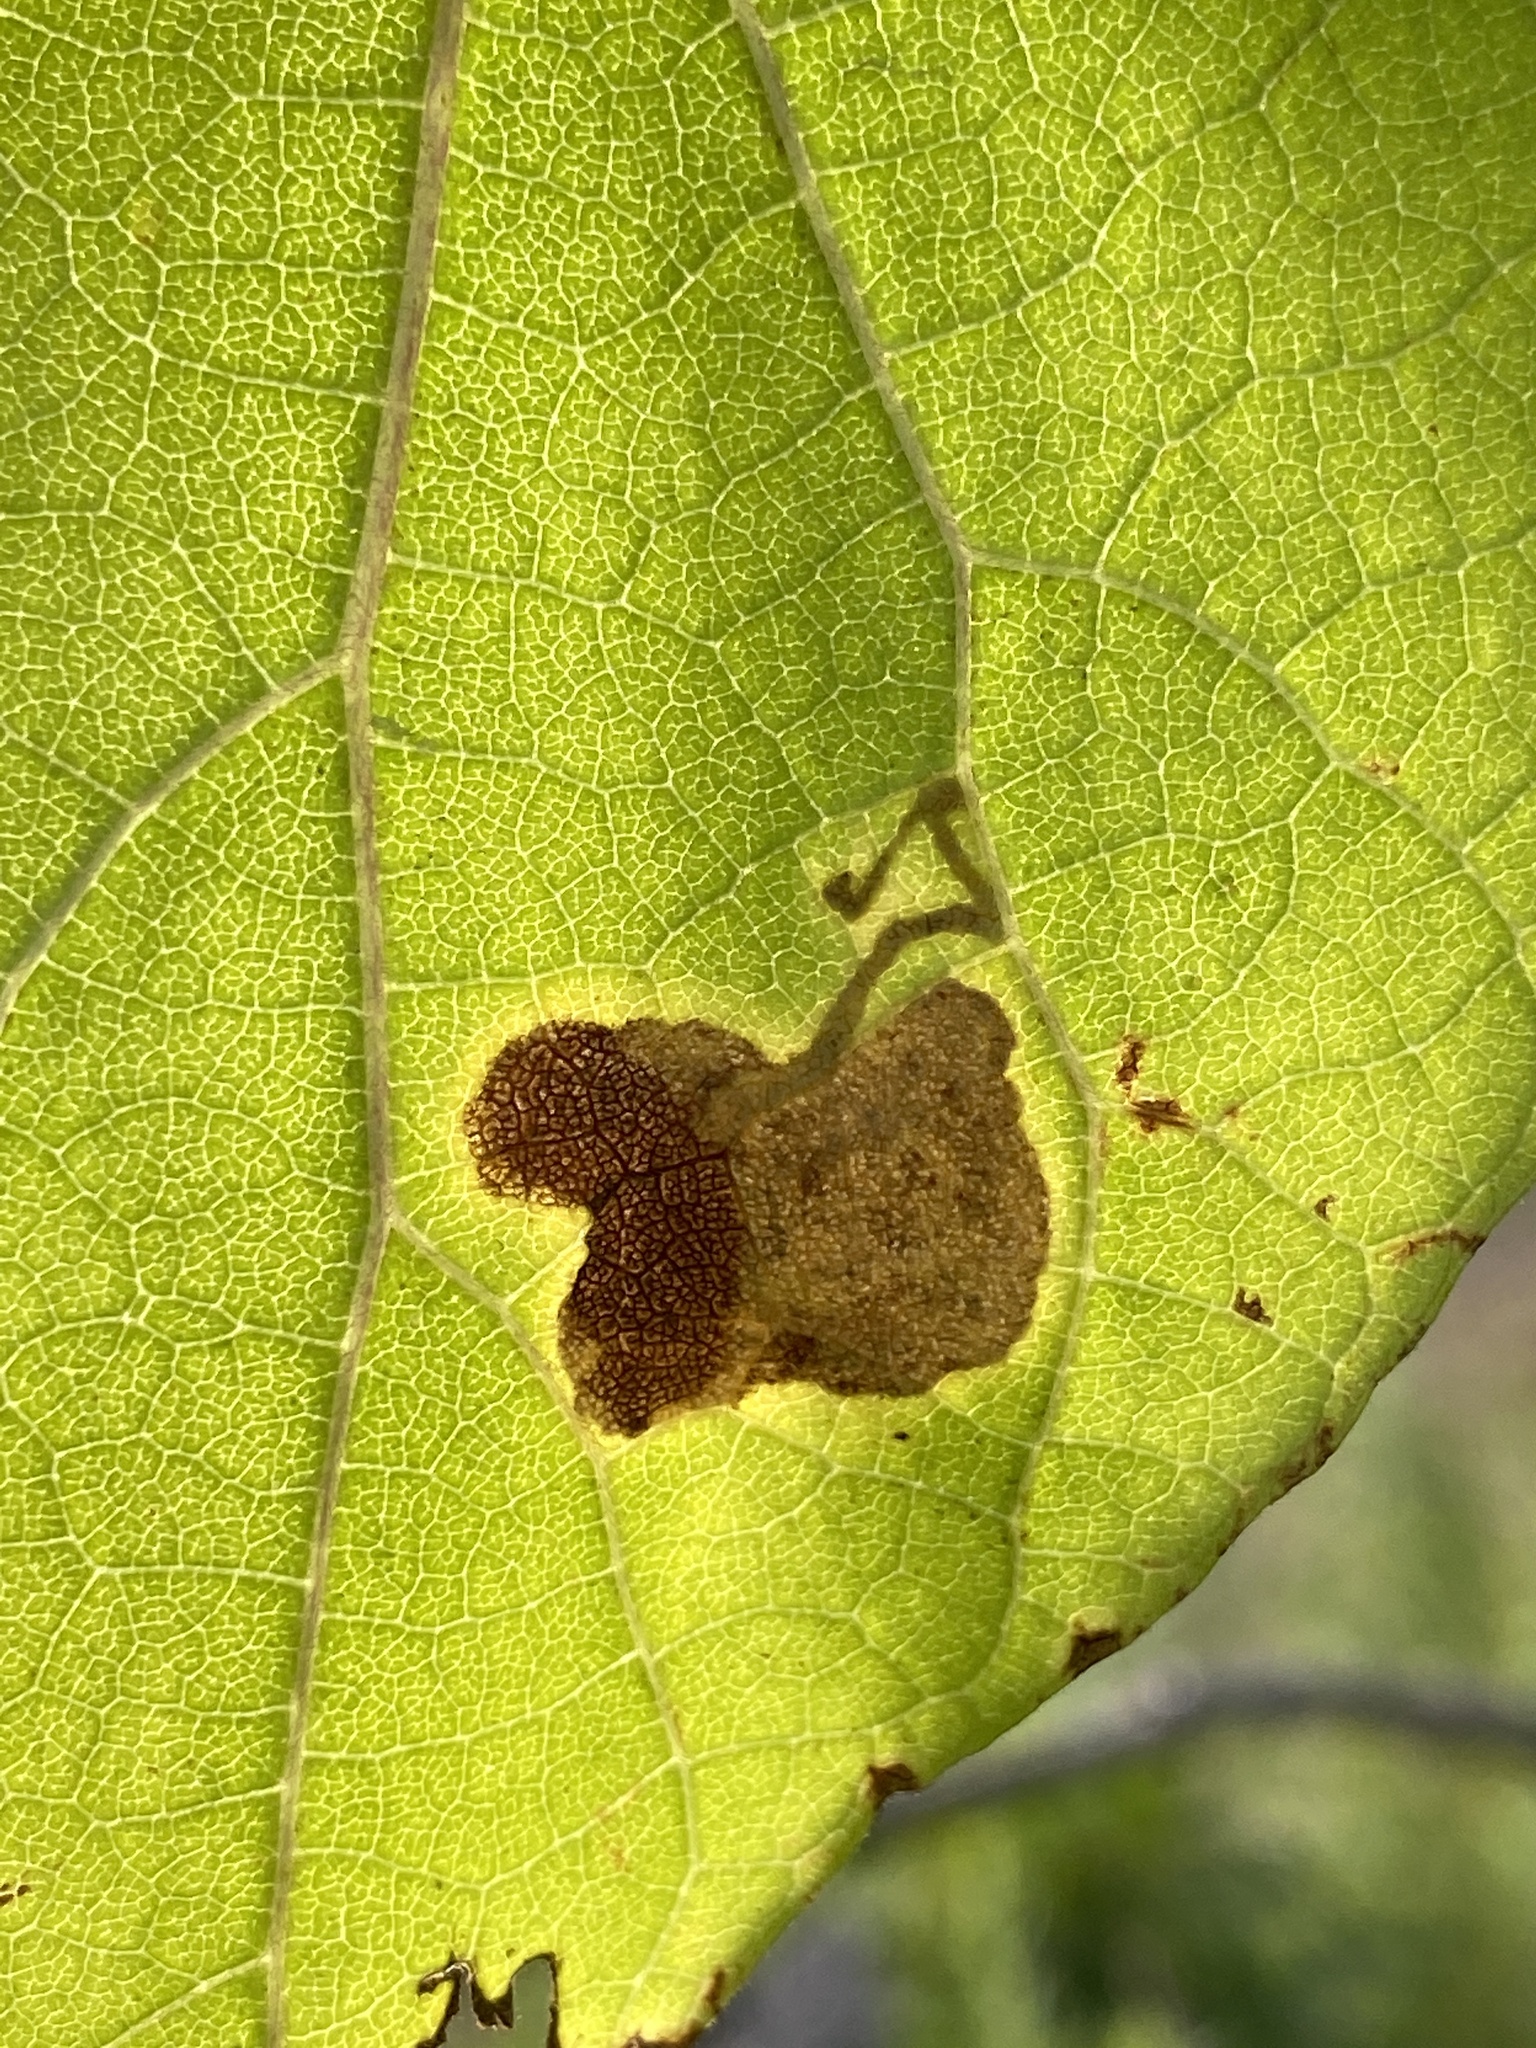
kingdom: Animalia
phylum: Arthropoda
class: Insecta
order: Diptera
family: Agromyzidae
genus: Amauromyza
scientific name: Amauromyza pleuralis
